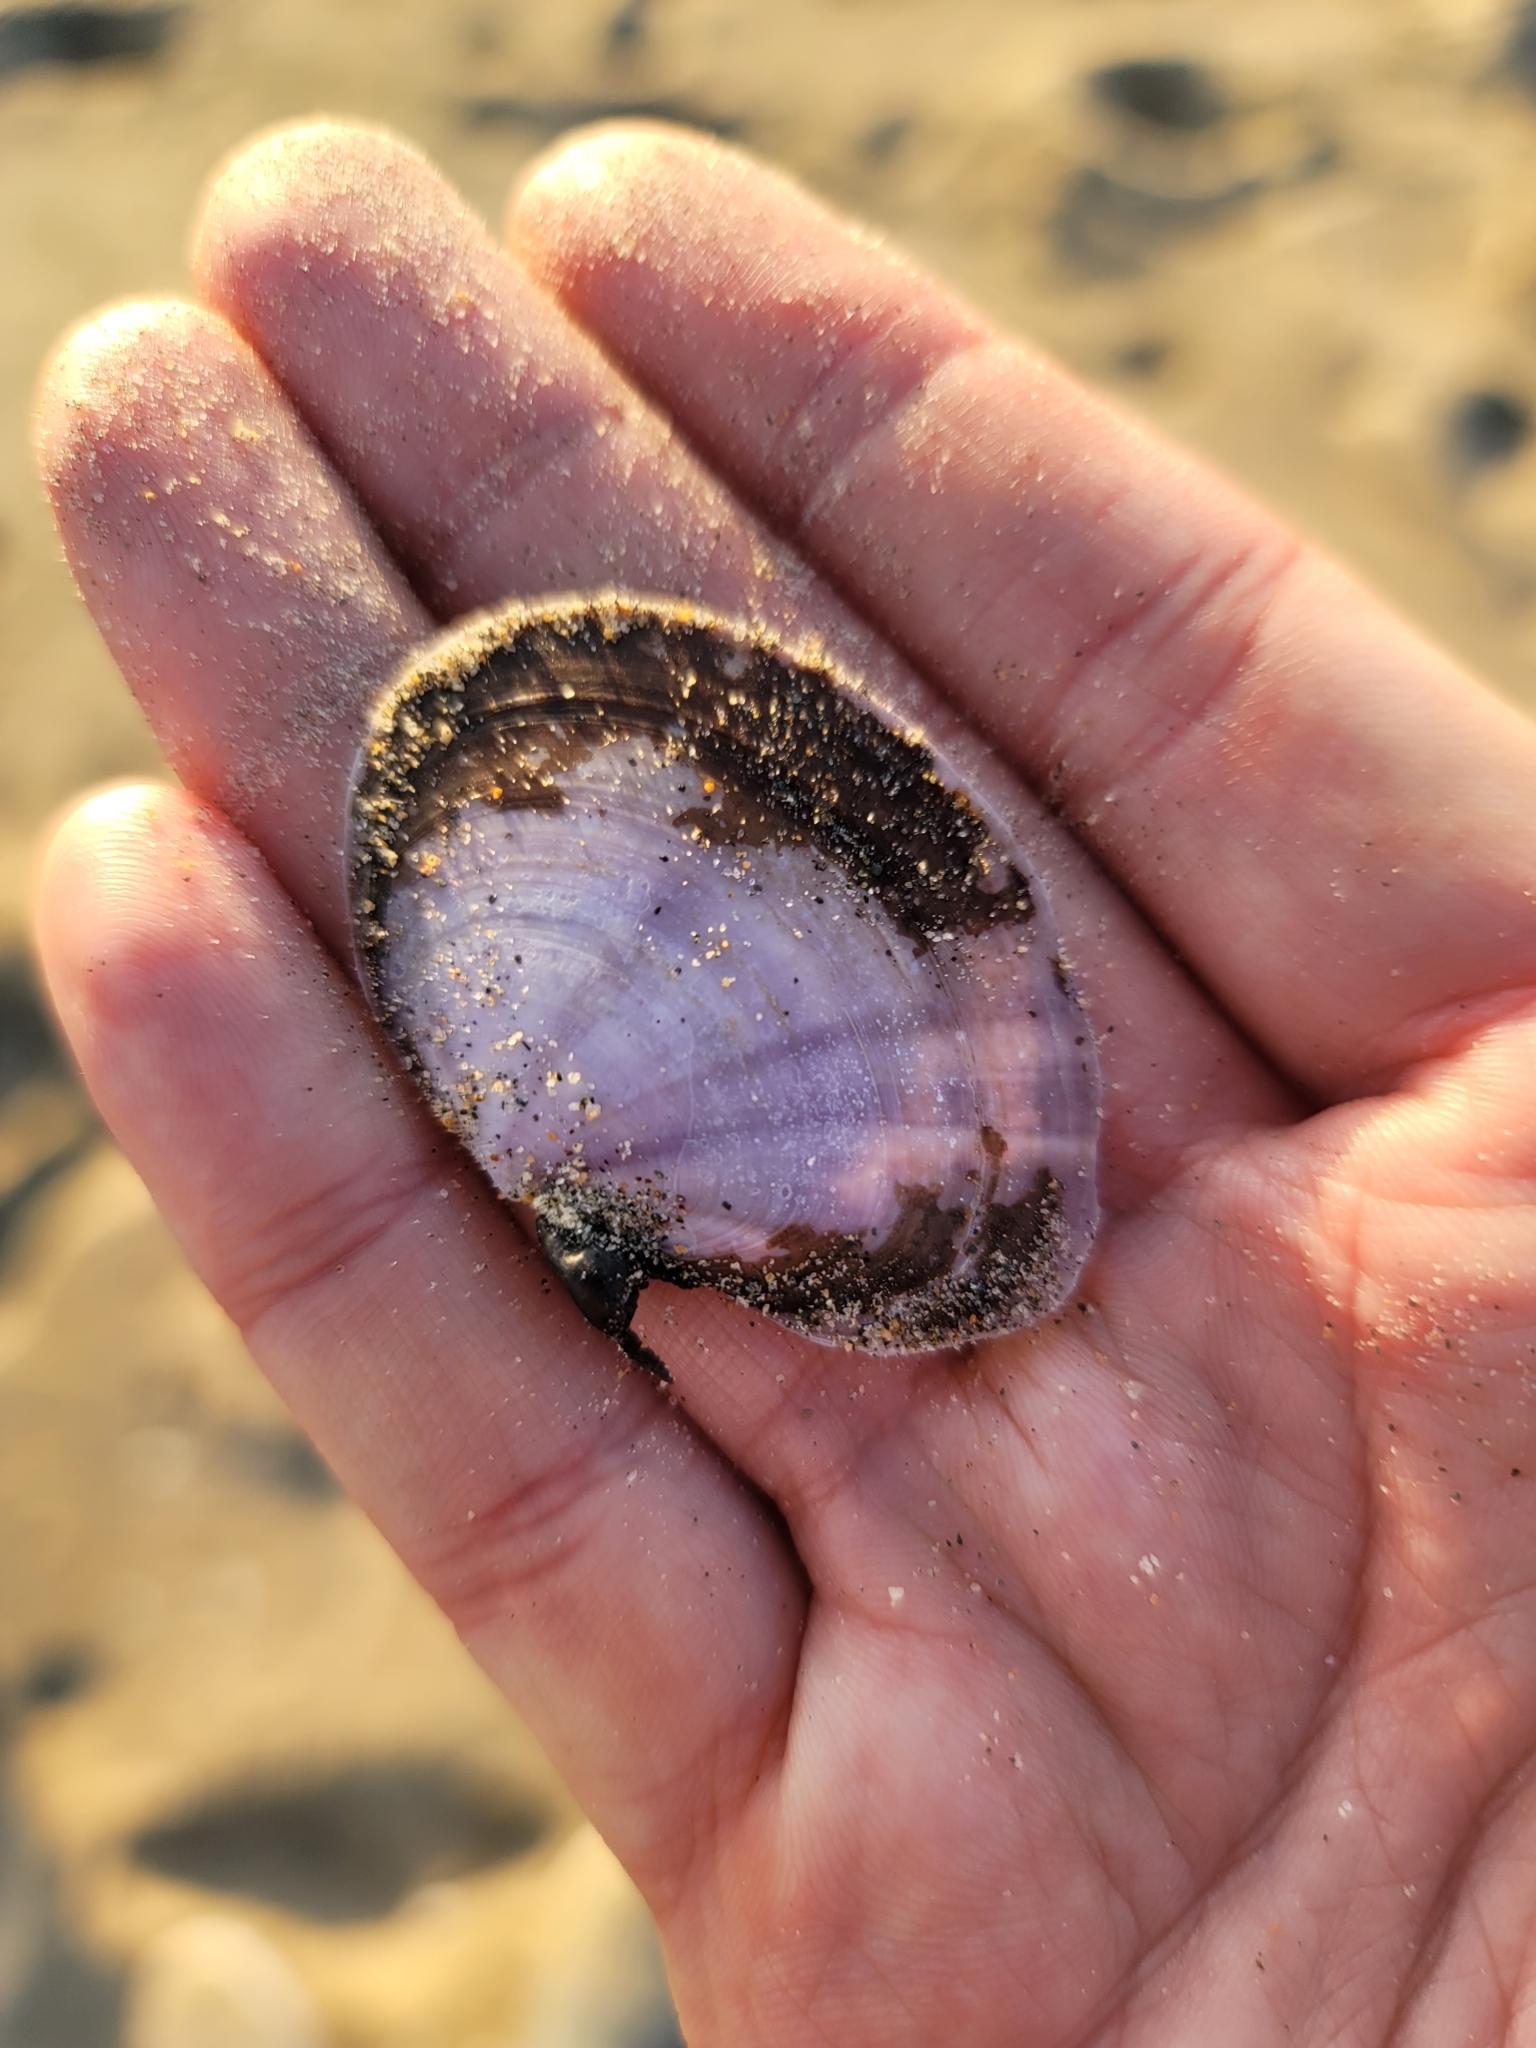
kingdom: Animalia
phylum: Mollusca
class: Bivalvia
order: Cardiida
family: Psammobiidae
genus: Nuttallia
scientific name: Nuttallia nuttallii
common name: California mahogany-clam
